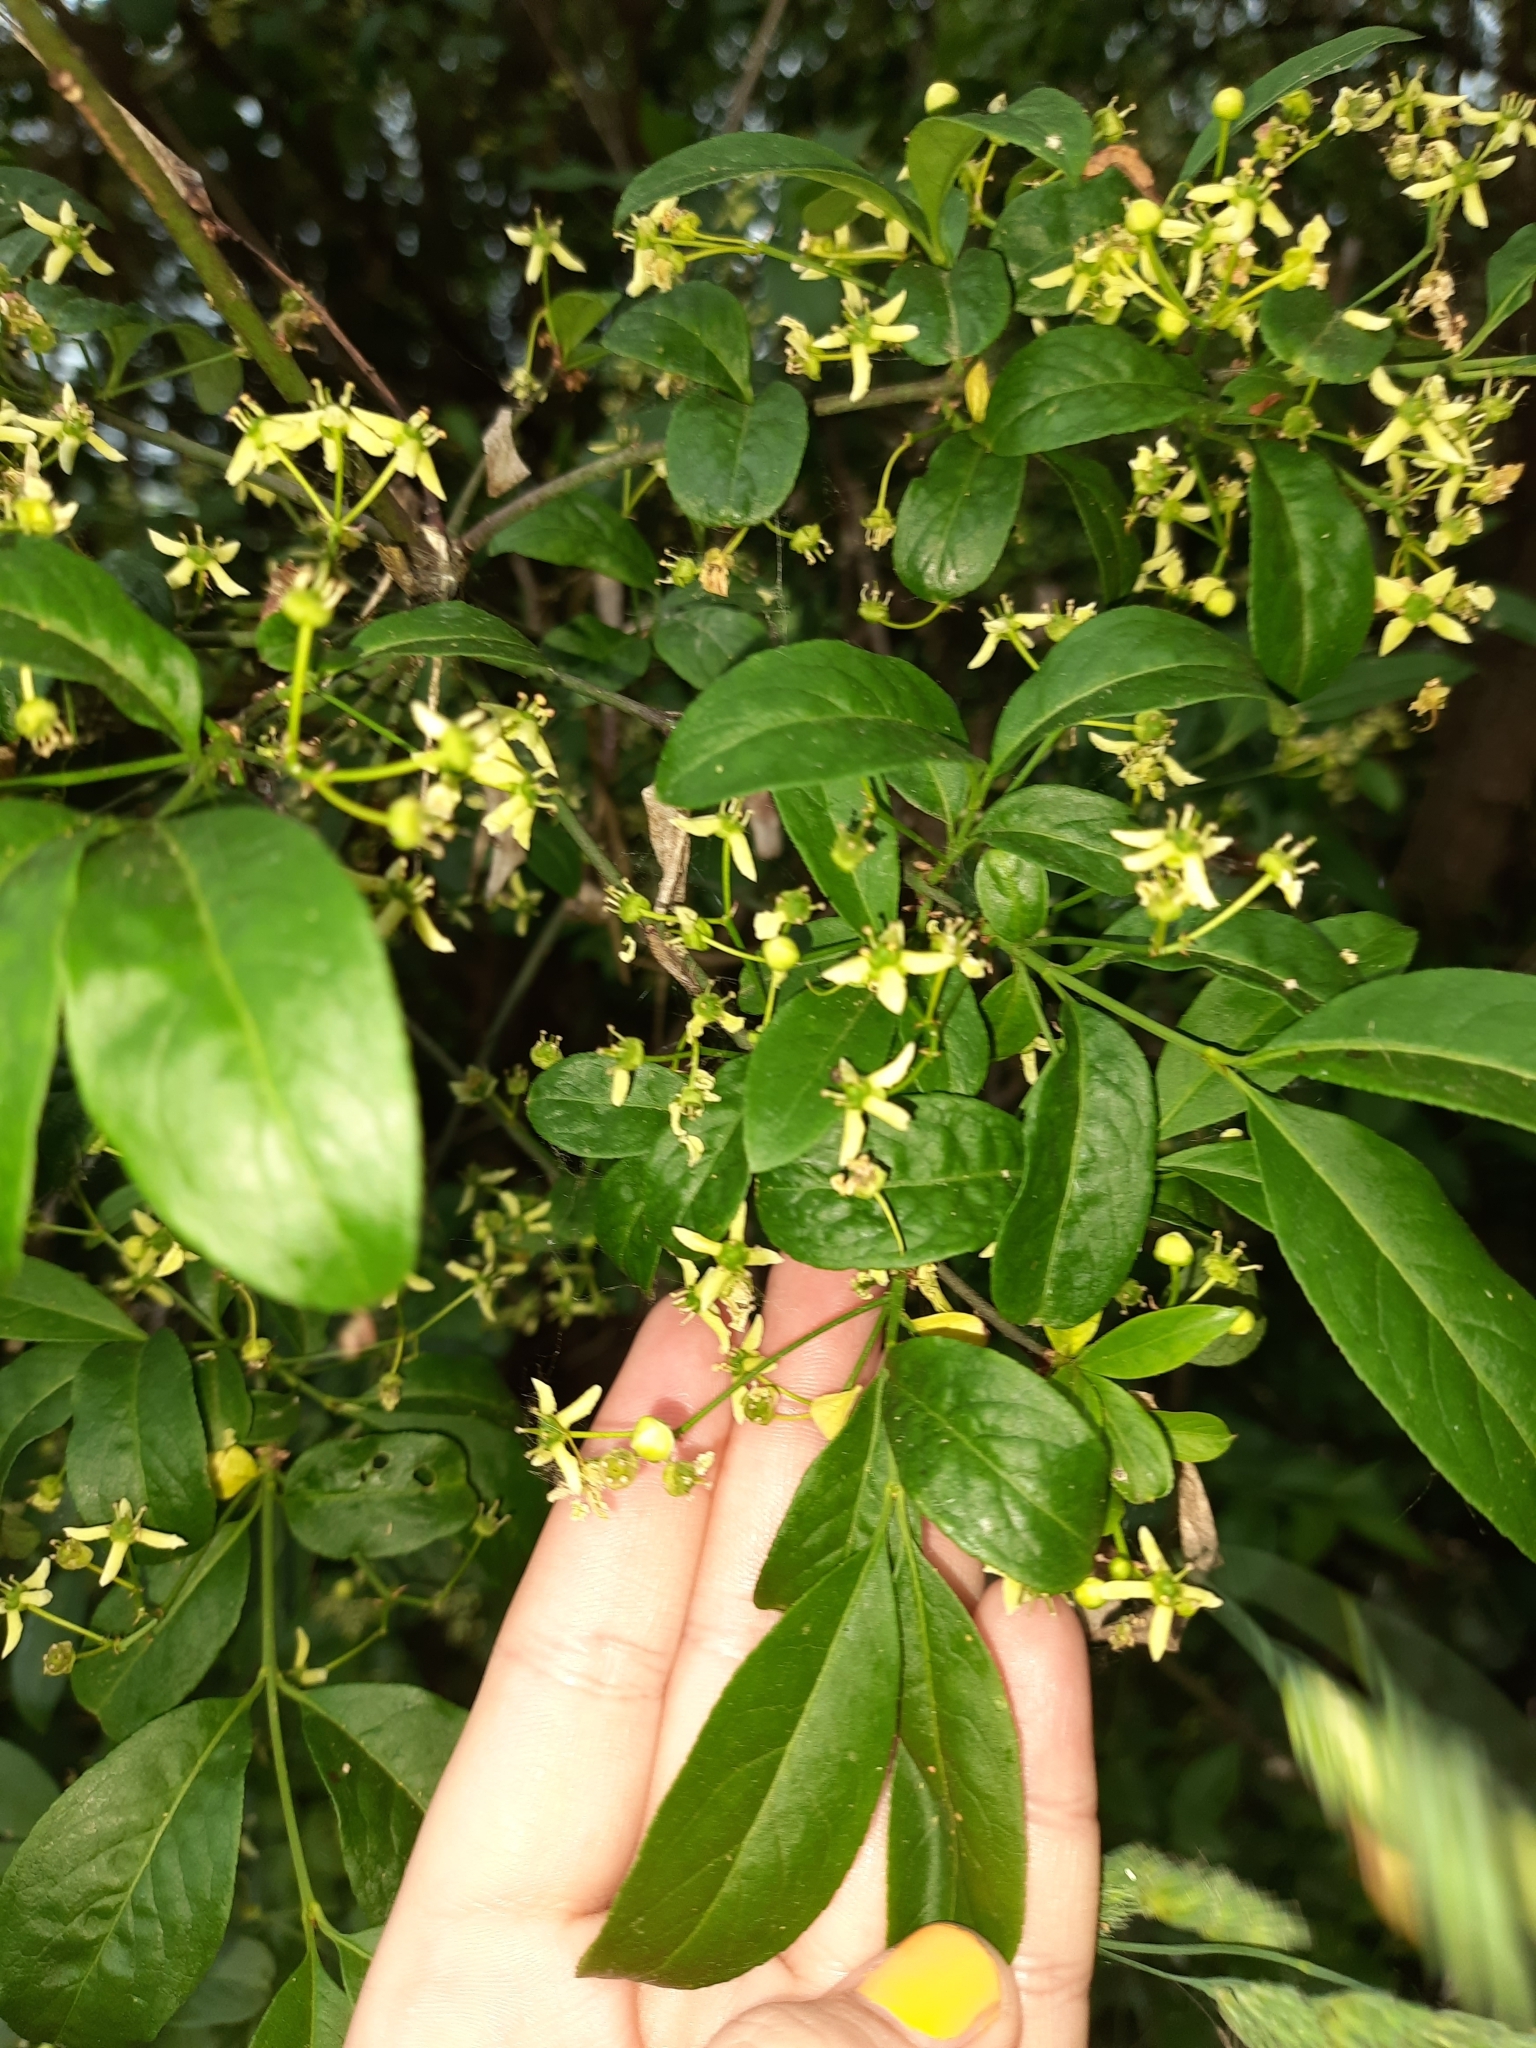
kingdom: Plantae
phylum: Tracheophyta
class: Magnoliopsida
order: Celastrales
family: Celastraceae
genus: Euonymus
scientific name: Euonymus europaeus
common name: Spindle
